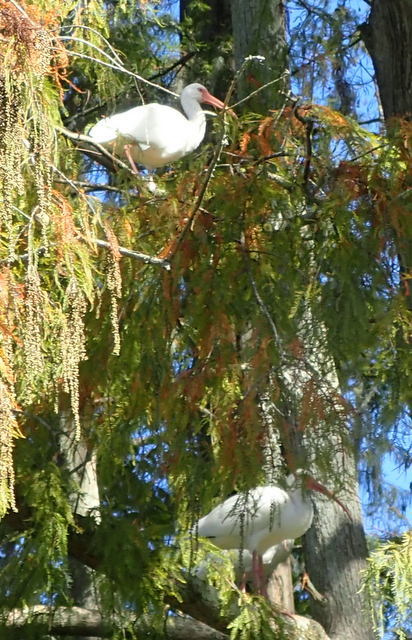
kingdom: Animalia
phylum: Chordata
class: Aves
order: Pelecaniformes
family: Threskiornithidae
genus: Eudocimus
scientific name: Eudocimus albus
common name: White ibis
